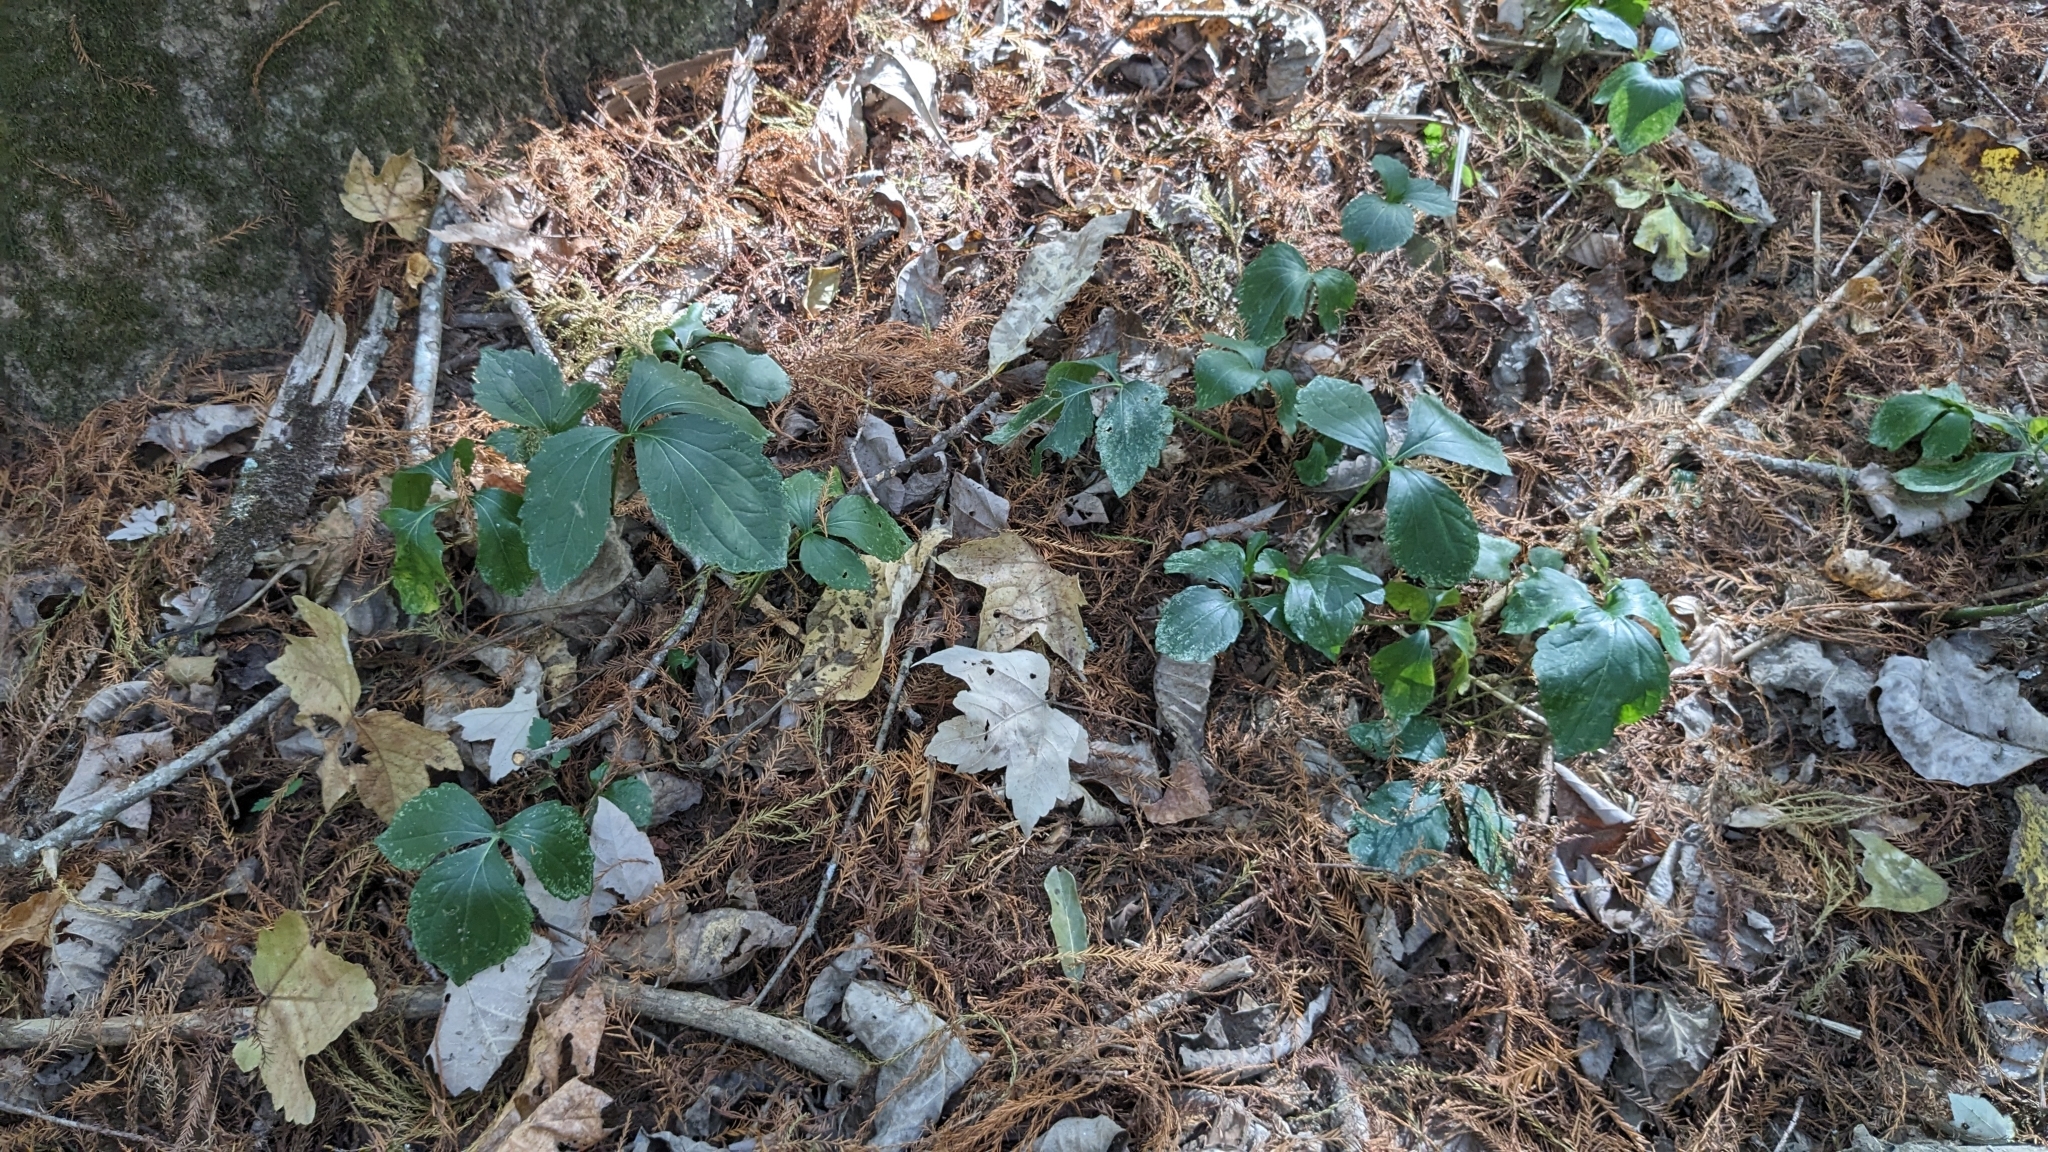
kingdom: Plantae
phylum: Tracheophyta
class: Magnoliopsida
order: Asterales
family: Asteraceae
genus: Rudbeckia
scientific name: Rudbeckia laciniata
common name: Coneflower
